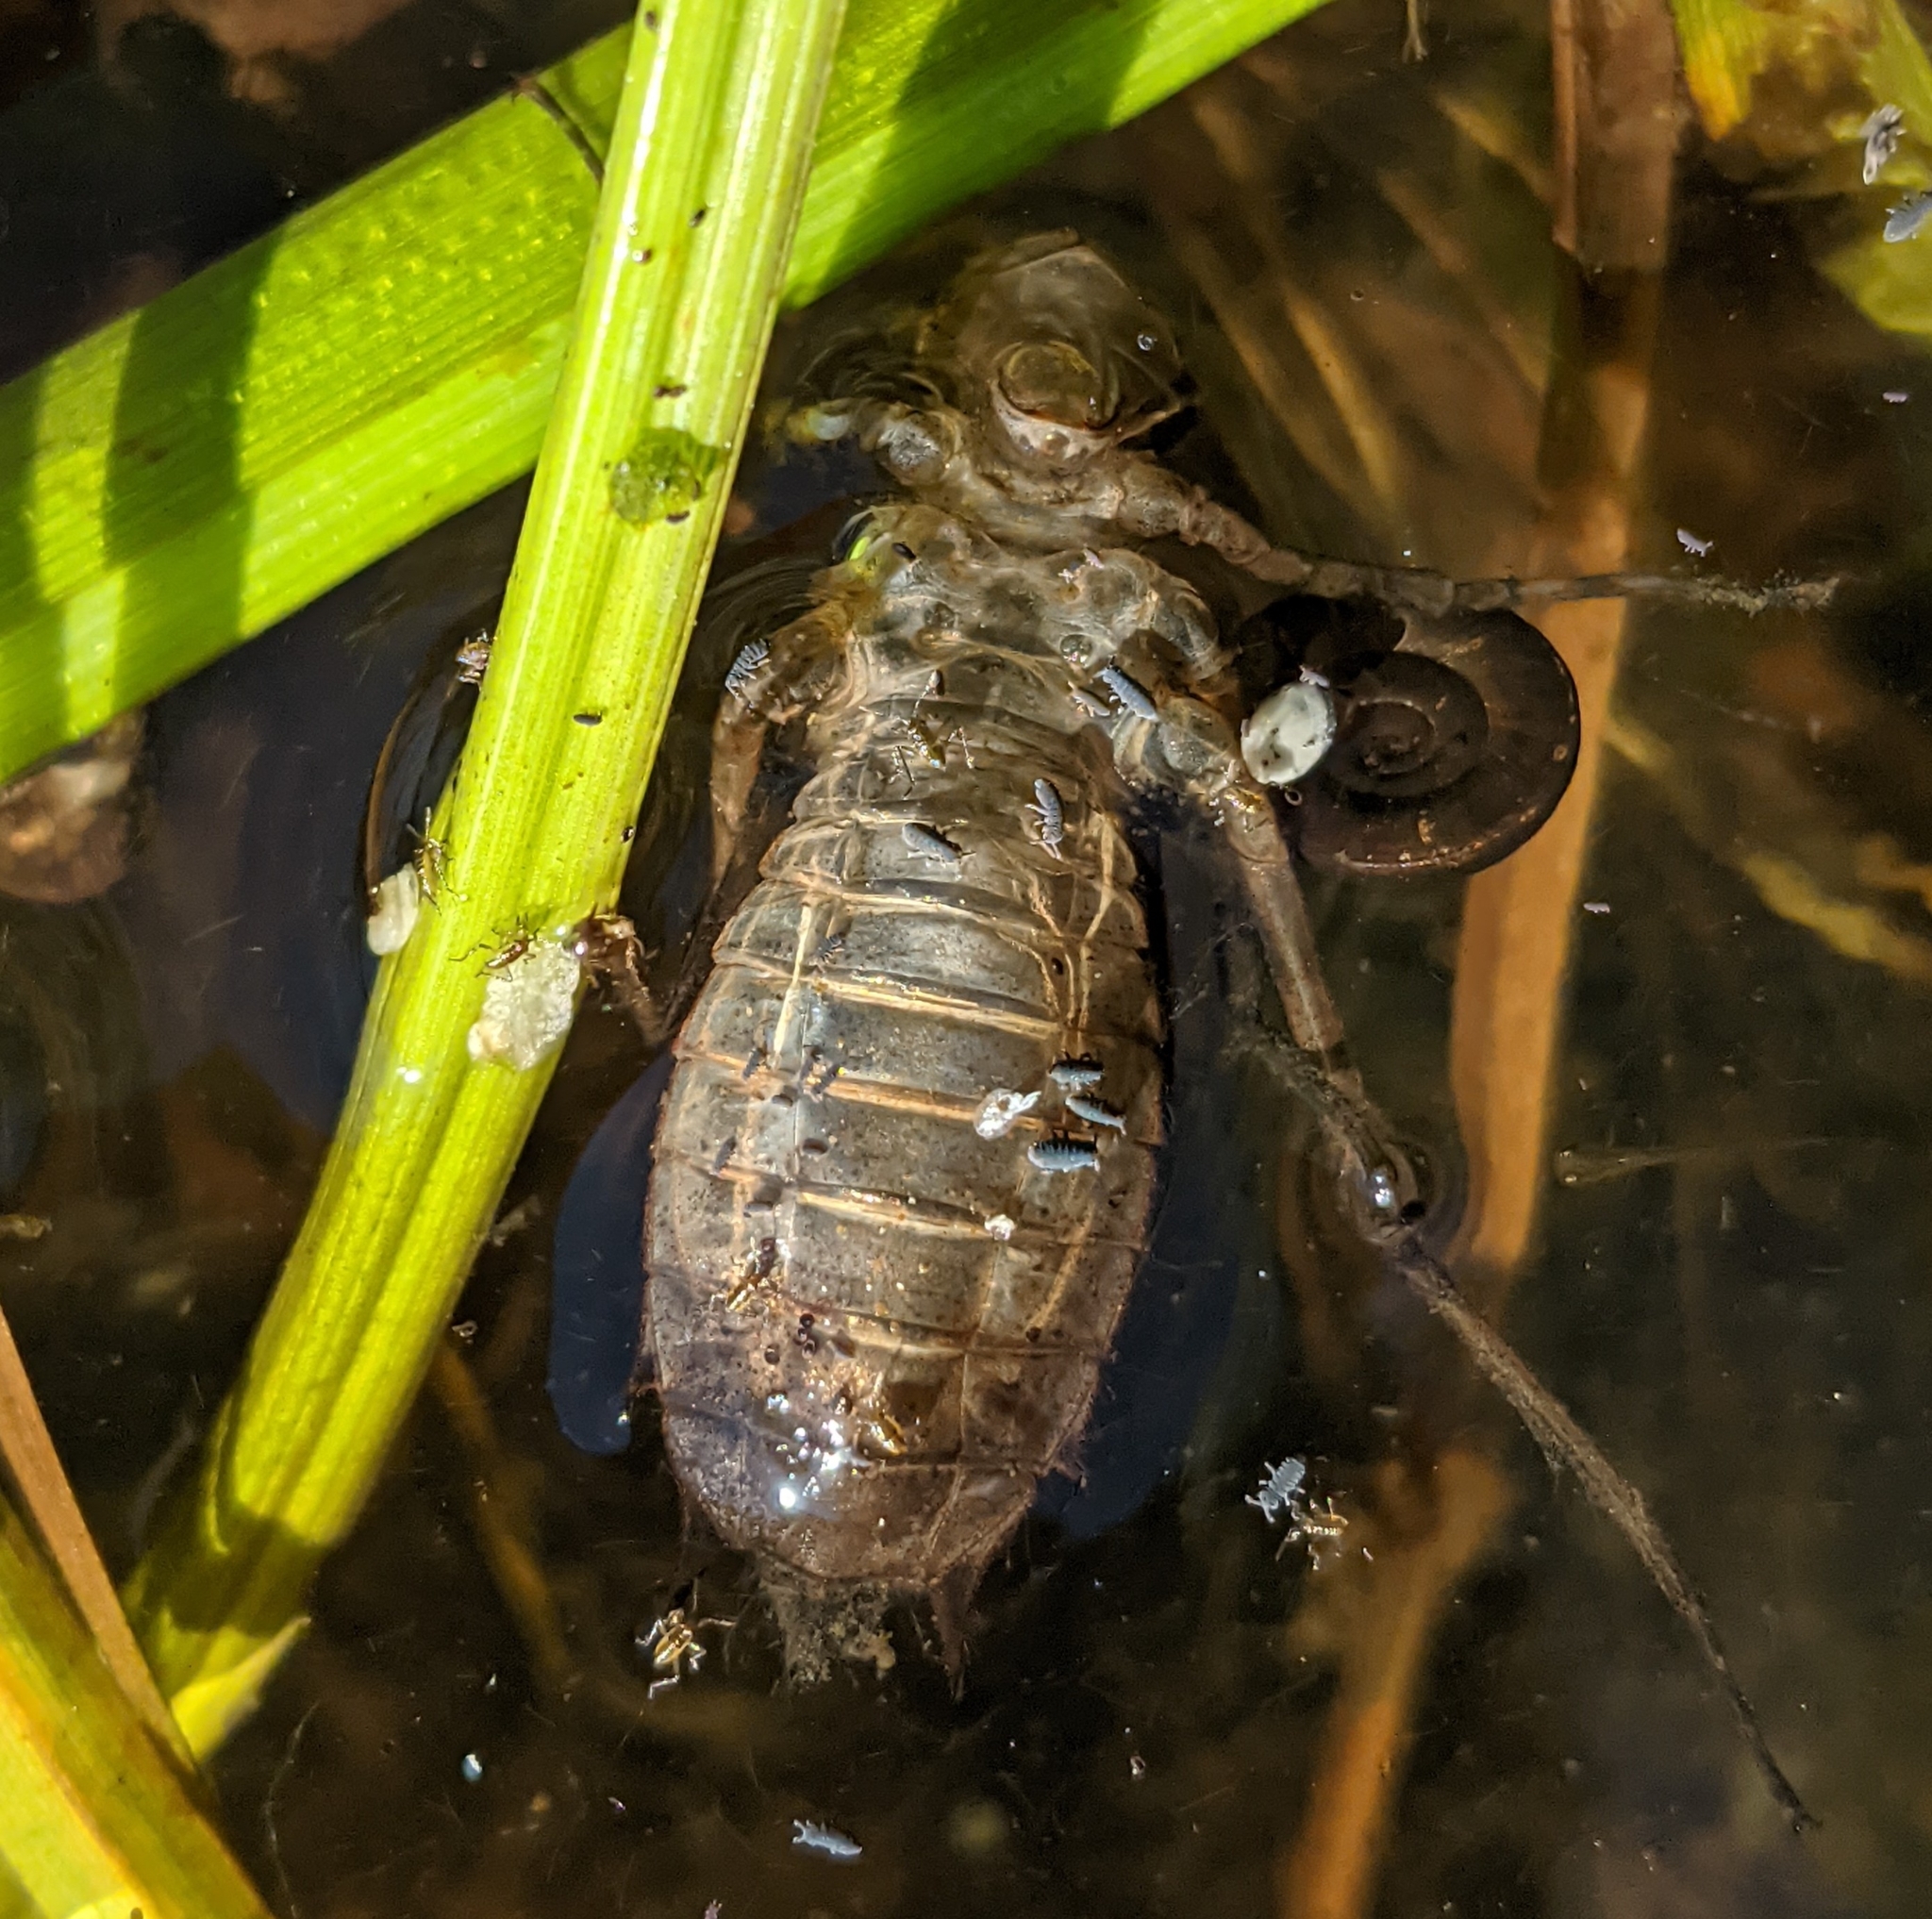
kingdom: Animalia
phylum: Arthropoda
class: Insecta
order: Odonata
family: Corduliidae
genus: Epitheca
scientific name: Epitheca bimaculata
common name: Eurasian baskettail
